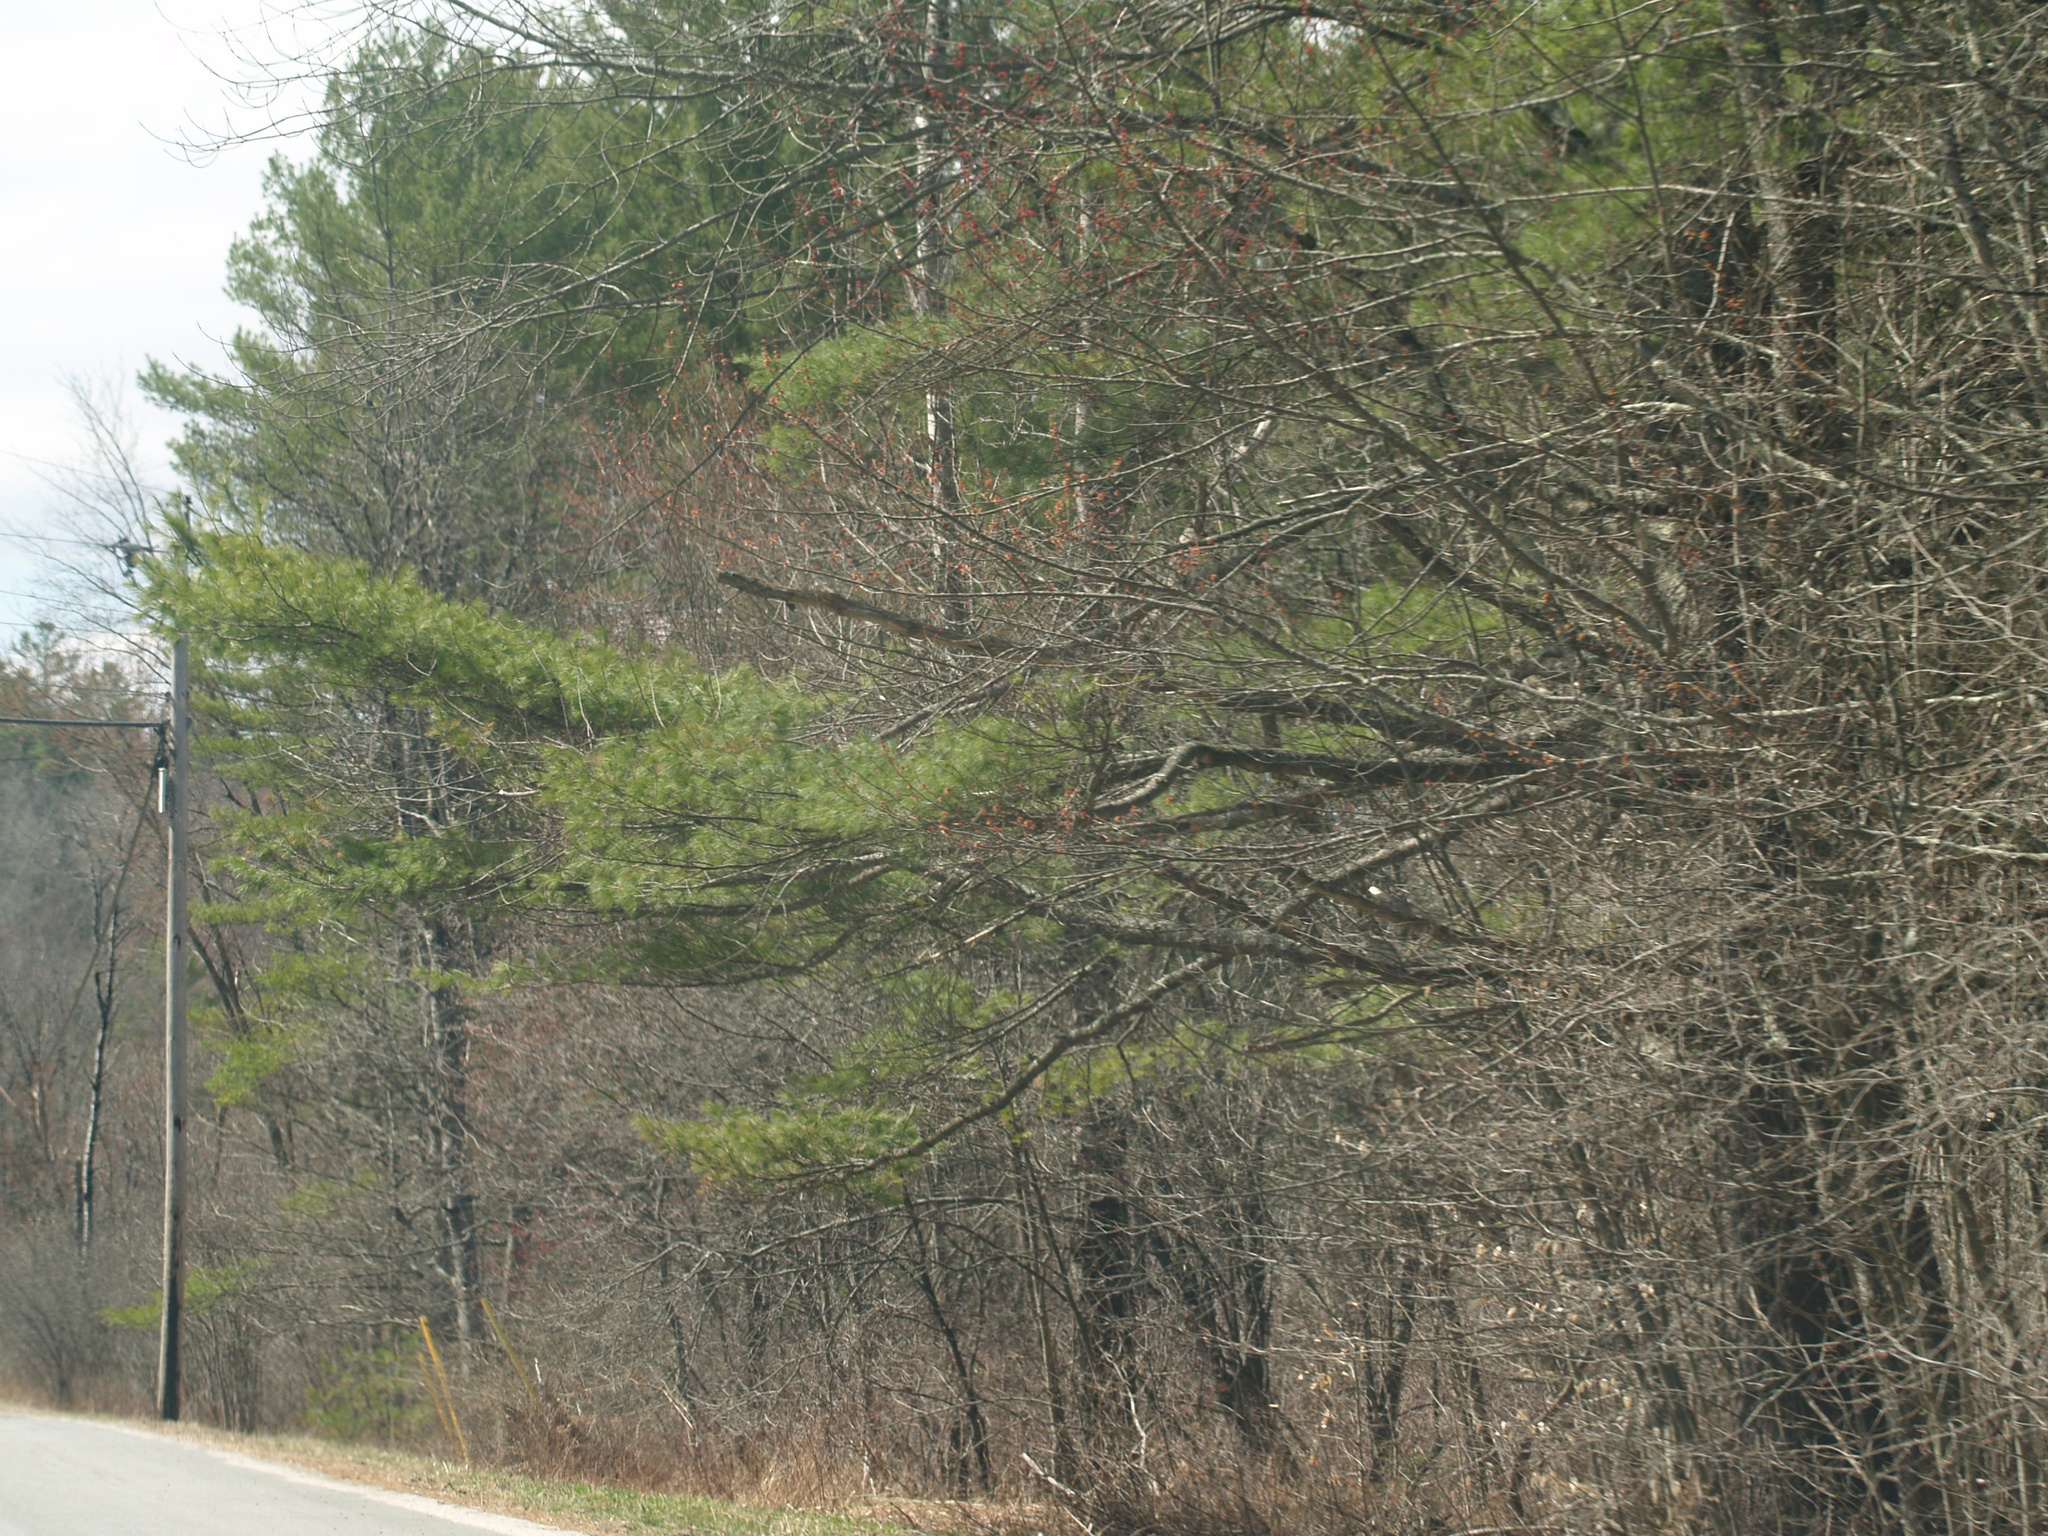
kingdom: Plantae
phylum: Tracheophyta
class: Pinopsida
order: Pinales
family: Pinaceae
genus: Pinus
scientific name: Pinus strobus
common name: Weymouth pine
